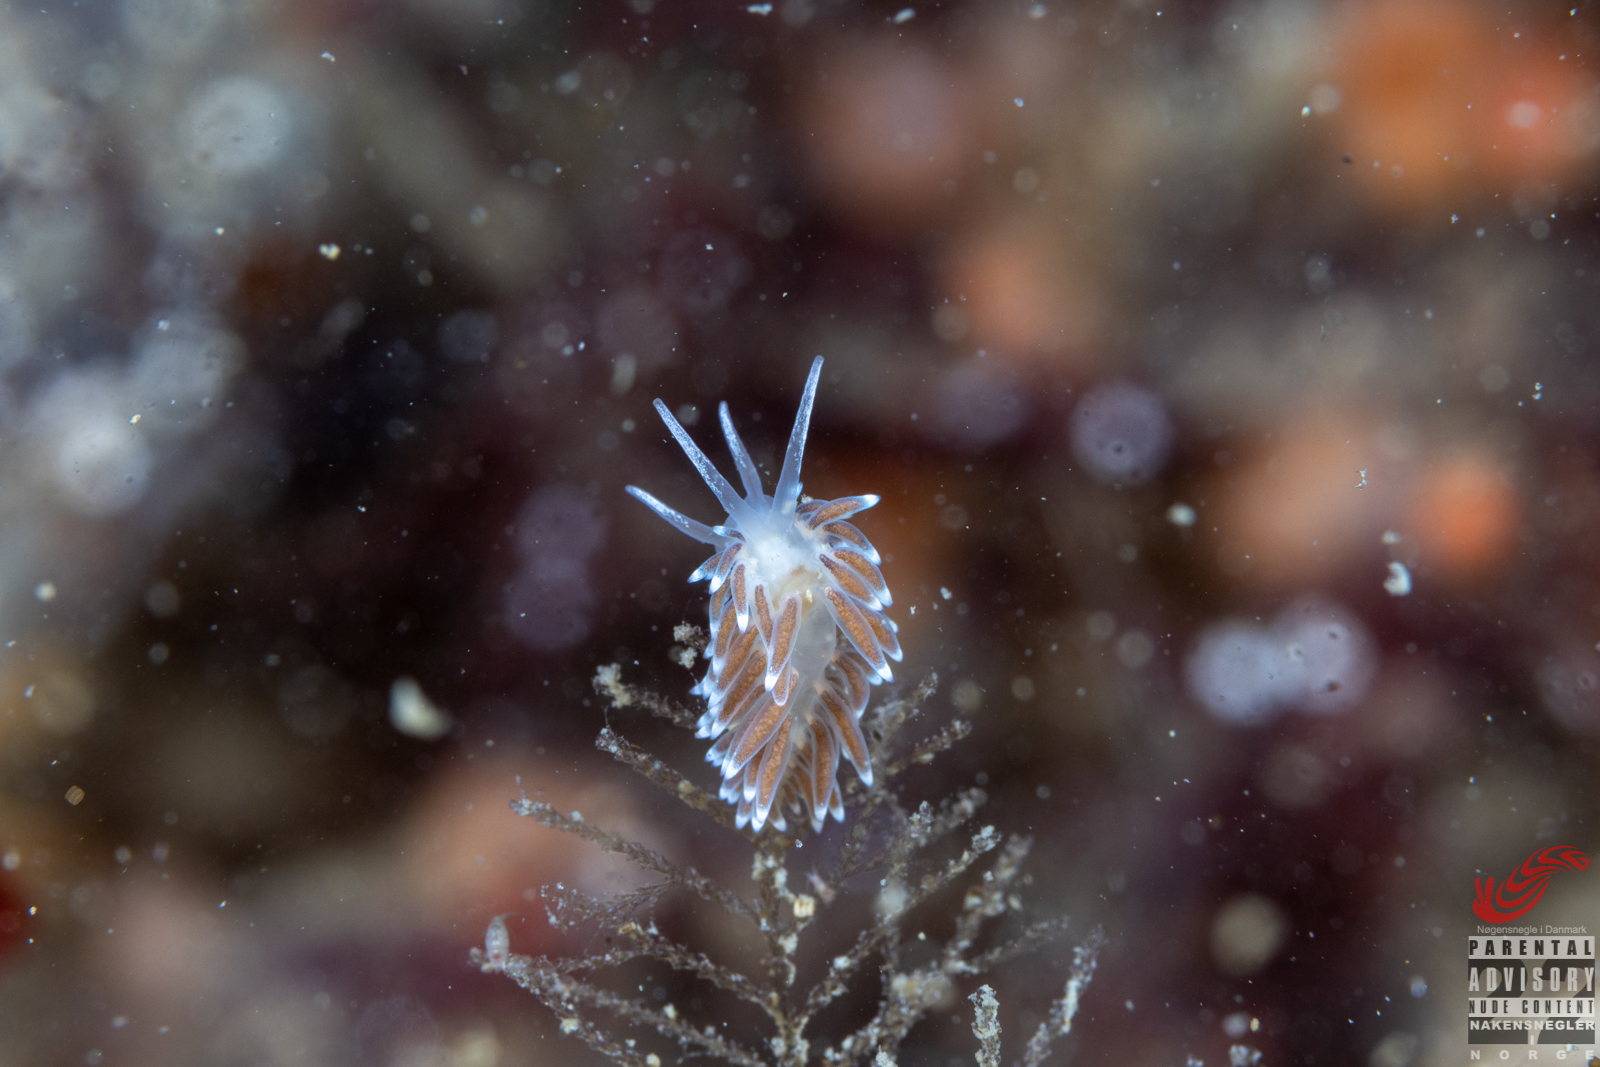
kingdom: Animalia
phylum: Mollusca
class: Gastropoda
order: Nudibranchia
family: Cuthonellidae
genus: Cuthonella
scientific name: Cuthonella concinna
